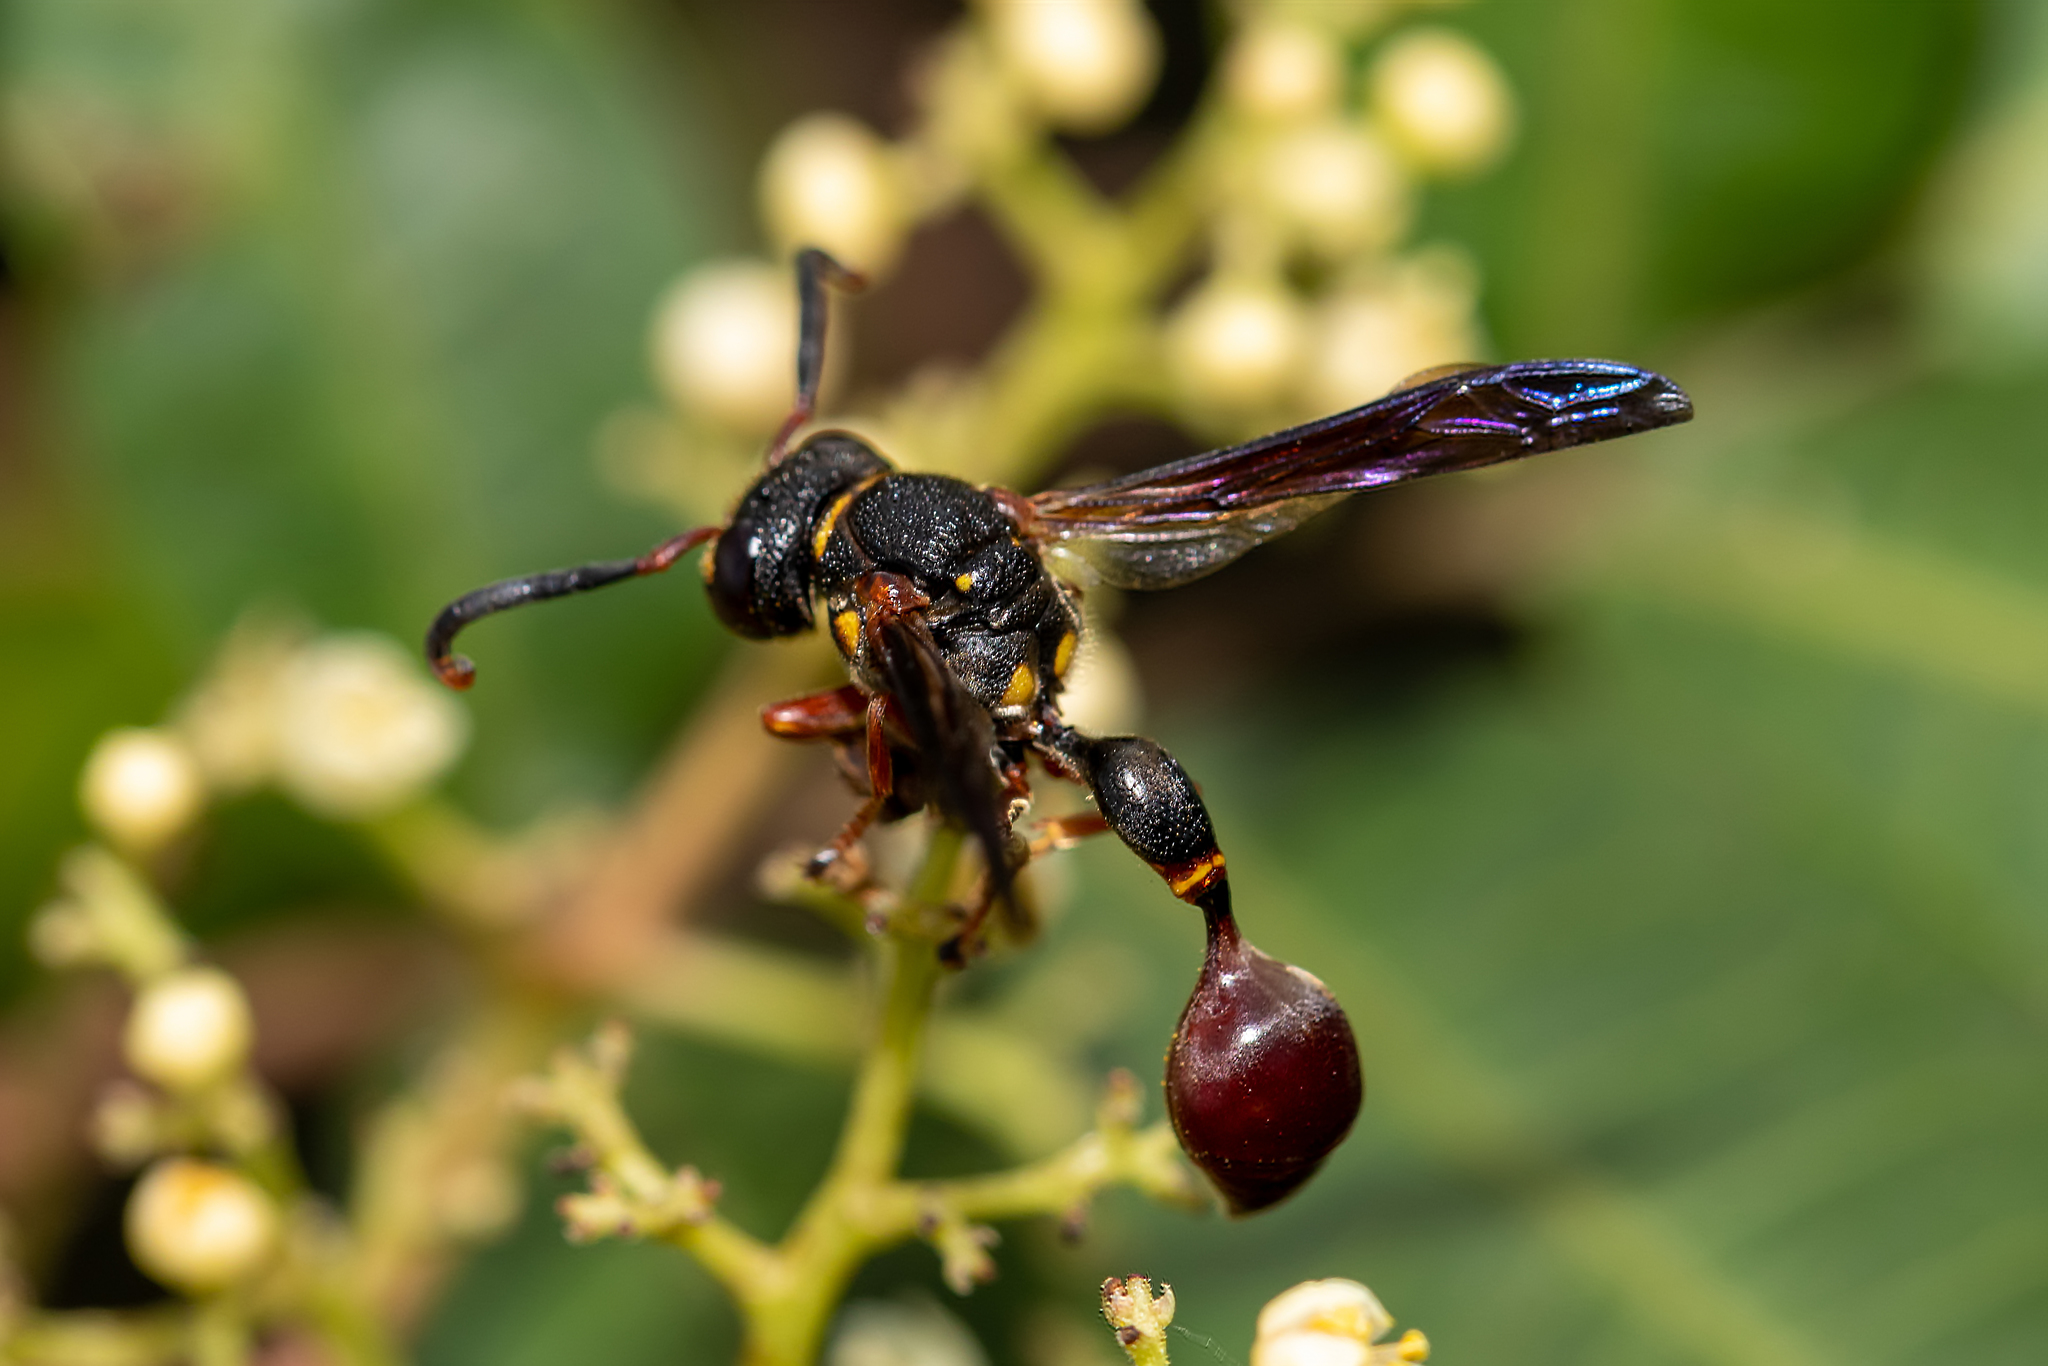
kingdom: Animalia
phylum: Arthropoda
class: Insecta
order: Hymenoptera
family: Eumenidae
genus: Zethus
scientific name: Zethus slossonae
